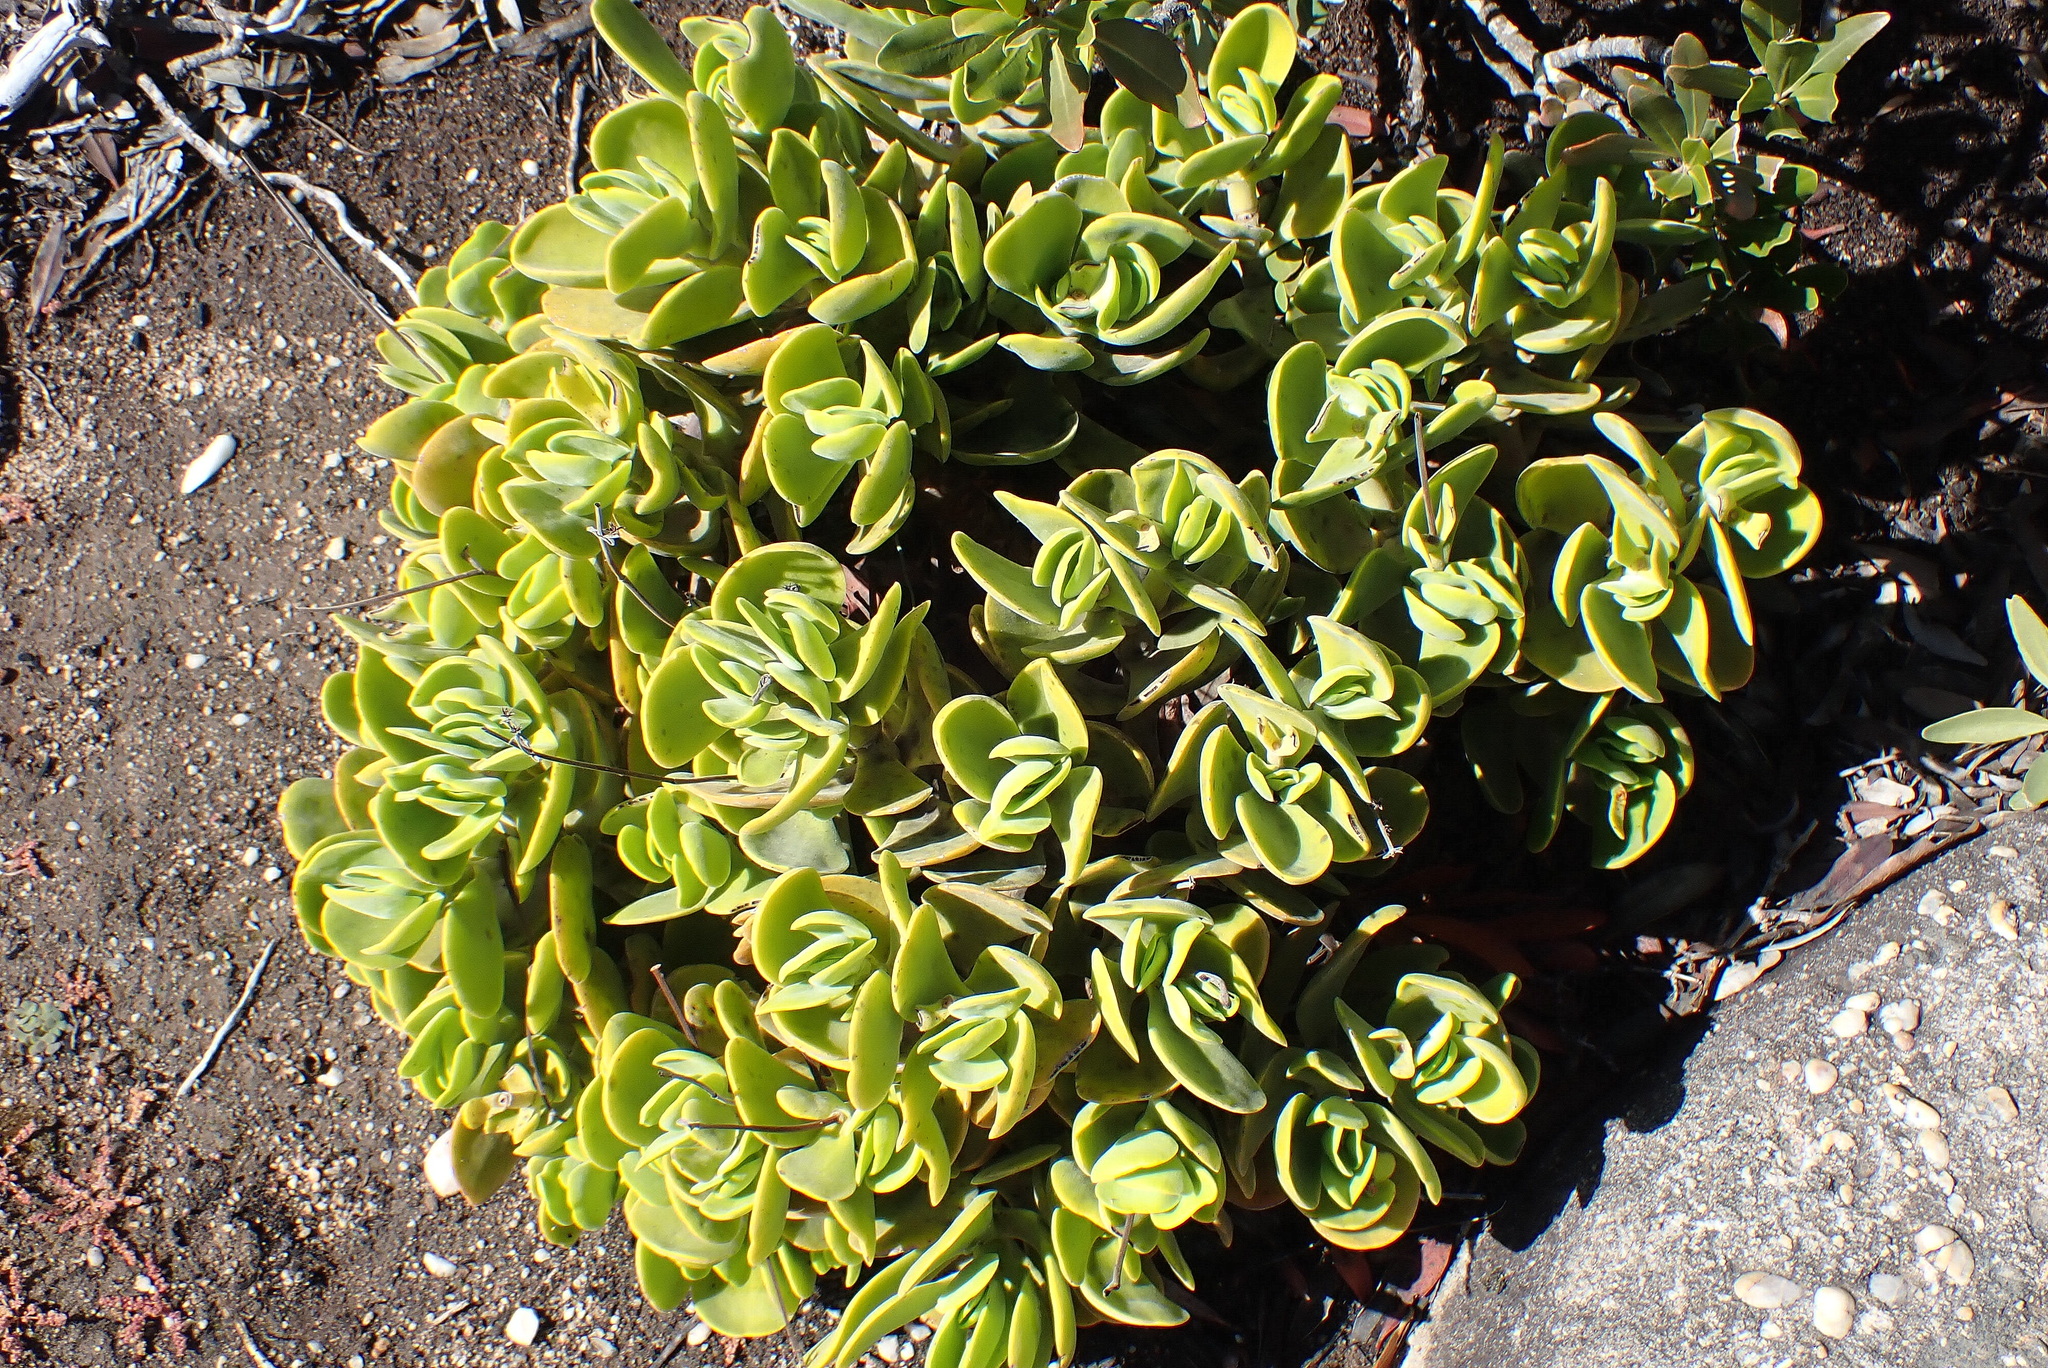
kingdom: Plantae
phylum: Tracheophyta
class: Magnoliopsida
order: Saxifragales
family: Crassulaceae
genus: Crassula
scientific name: Crassula atropurpurea
